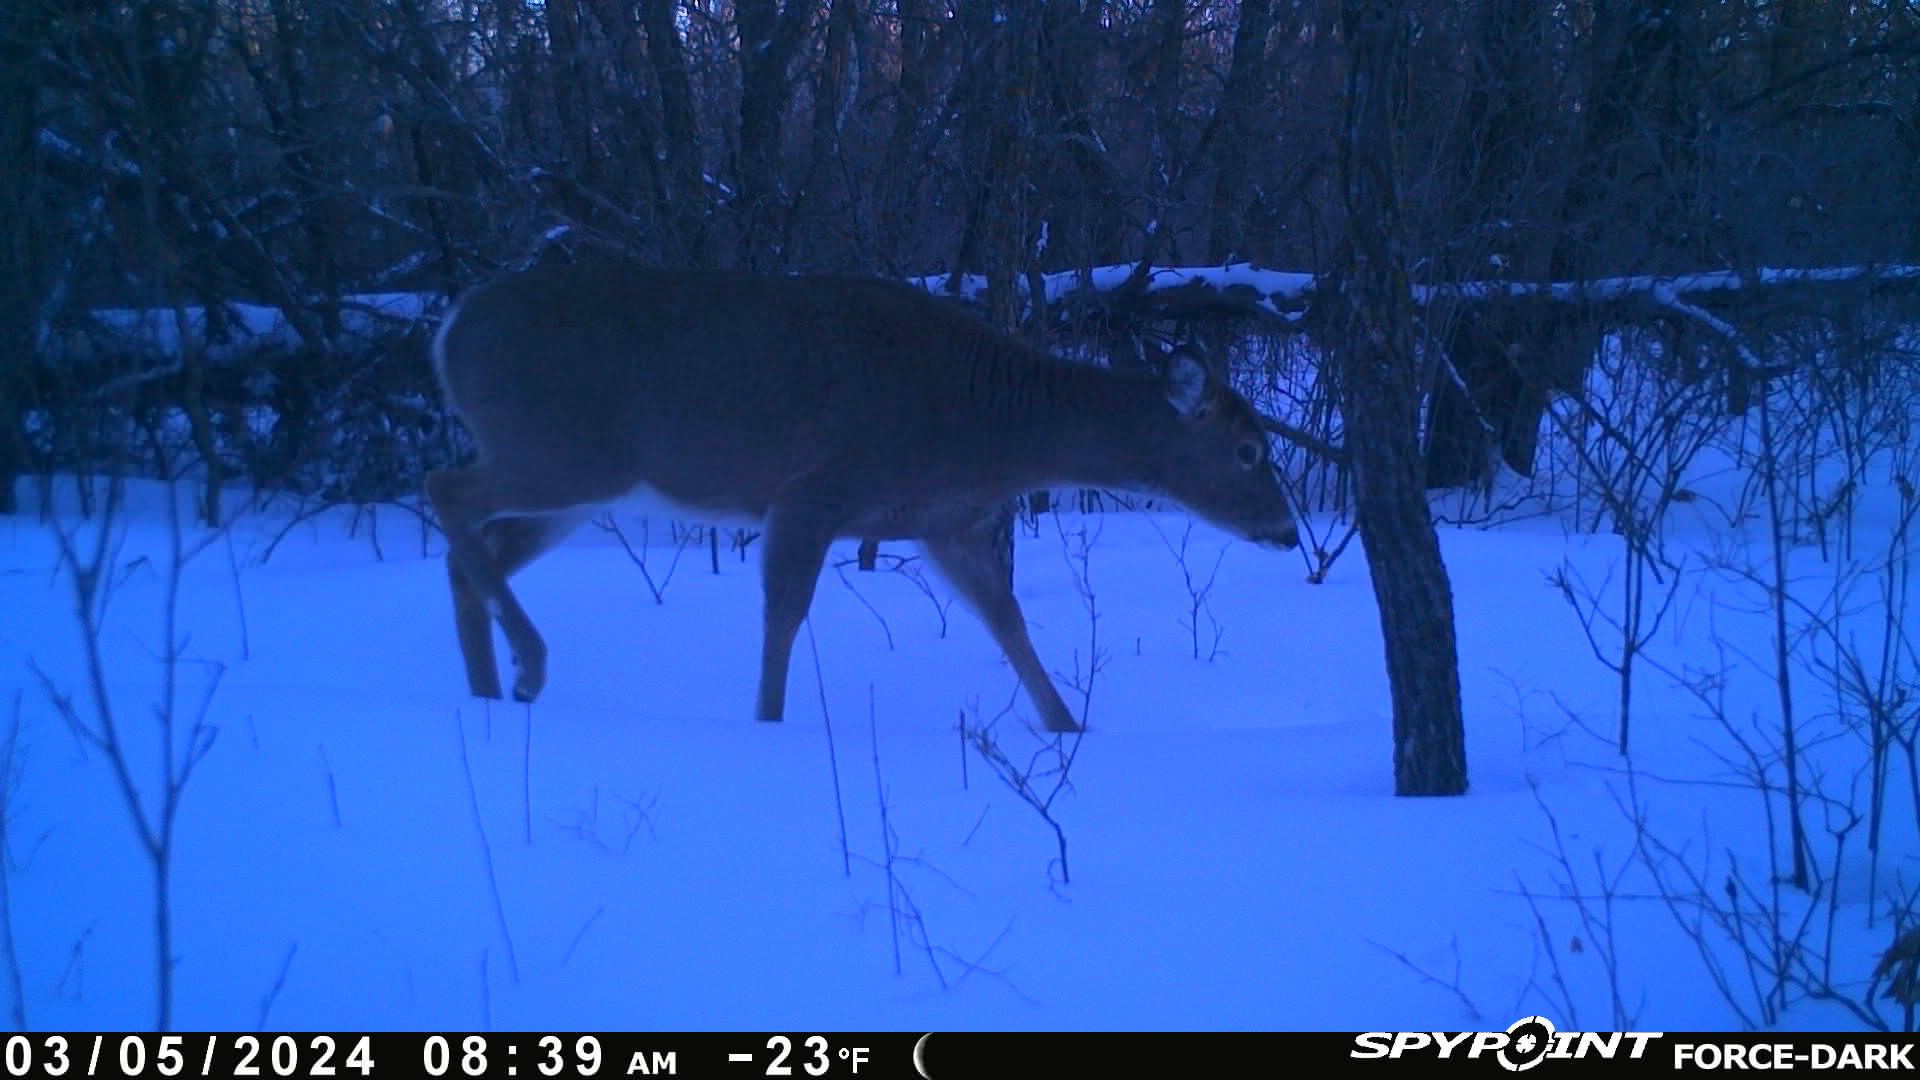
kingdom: Animalia
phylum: Chordata
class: Mammalia
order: Artiodactyla
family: Cervidae
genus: Odocoileus
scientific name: Odocoileus virginianus
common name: White-tailed deer
